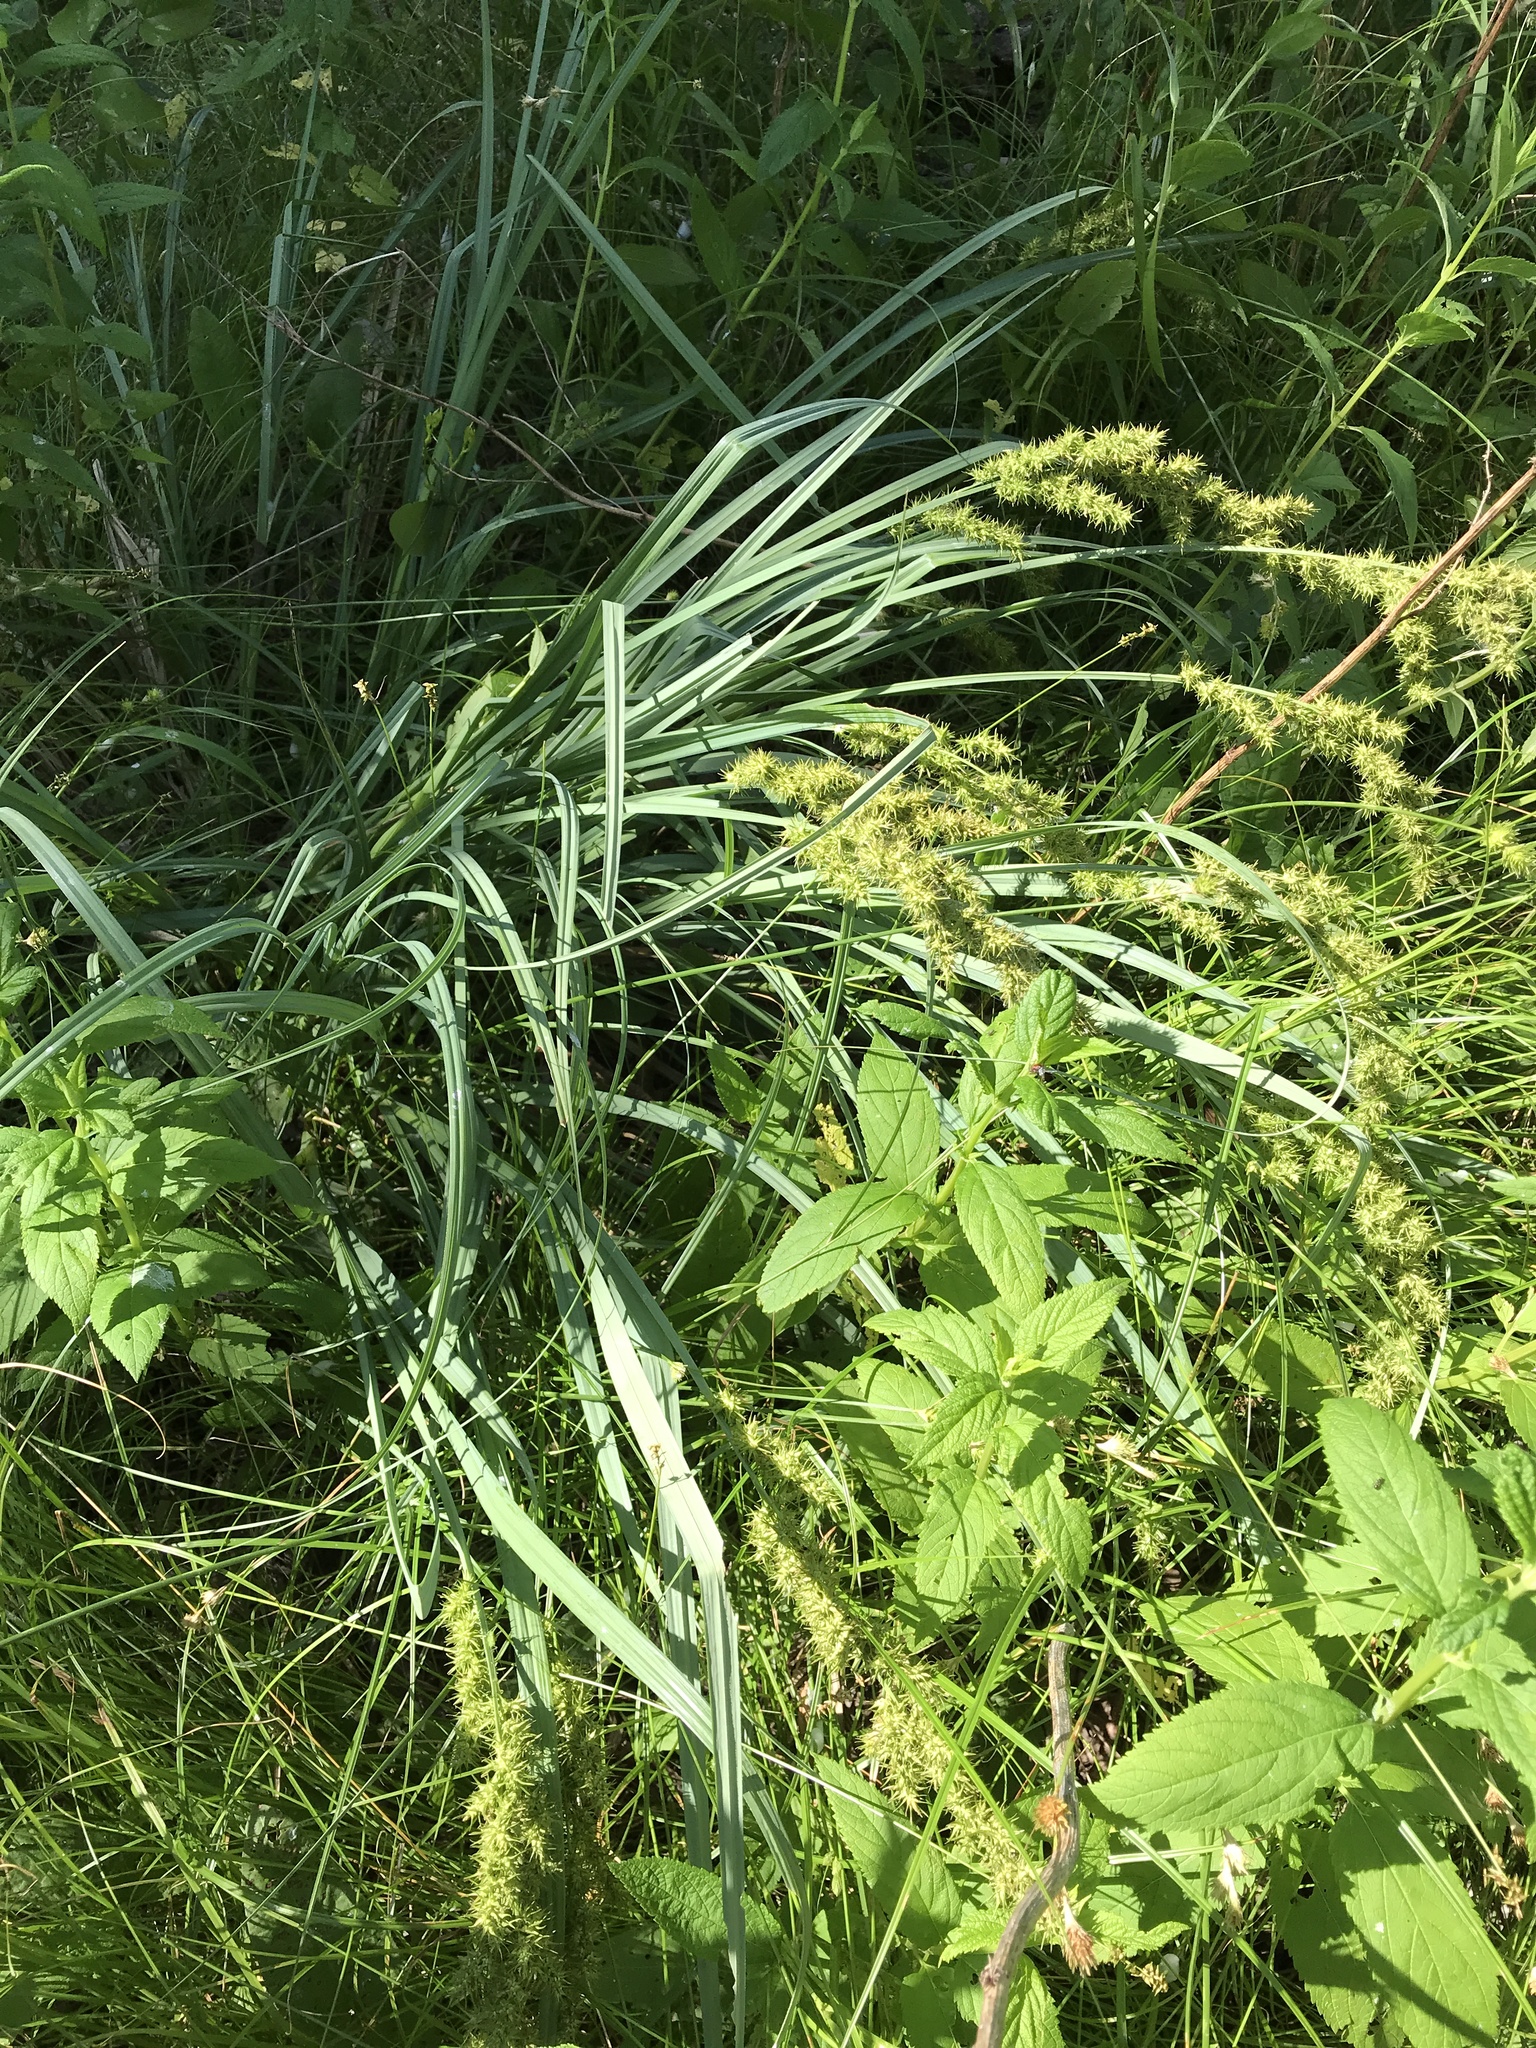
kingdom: Plantae
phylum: Tracheophyta
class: Liliopsida
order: Poales
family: Cyperaceae
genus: Carex
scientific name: Carex crus-corvi
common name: Crow-spur sedge
